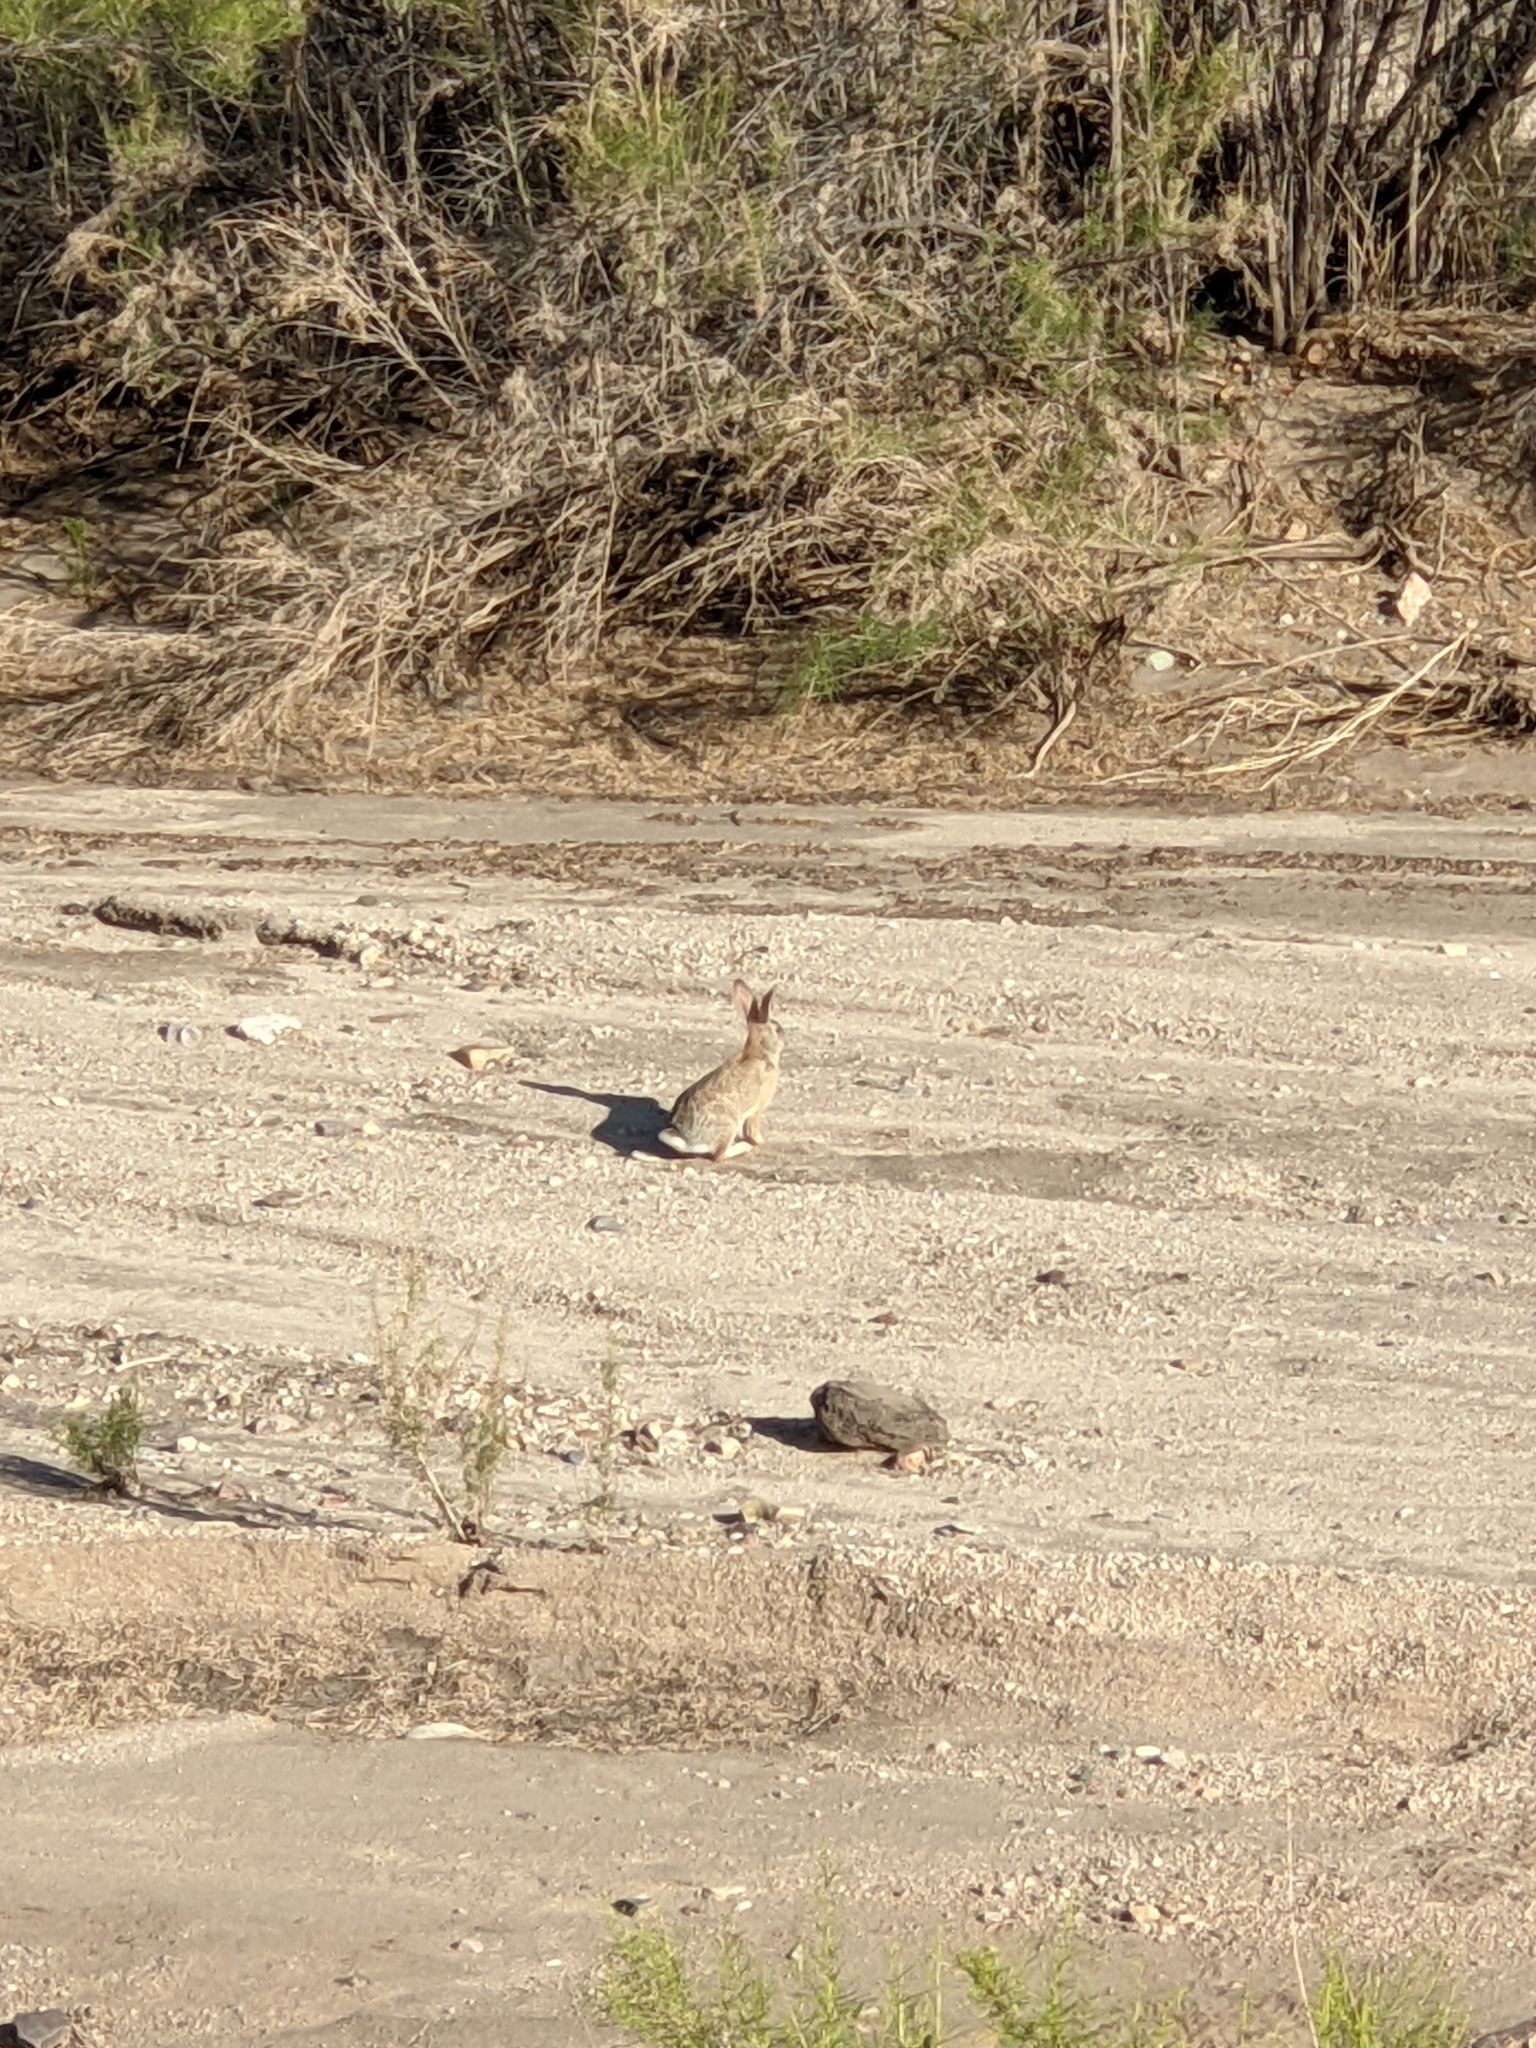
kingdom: Animalia
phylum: Chordata
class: Mammalia
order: Lagomorpha
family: Leporidae
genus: Sylvilagus
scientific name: Sylvilagus audubonii
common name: Desert cottontail
